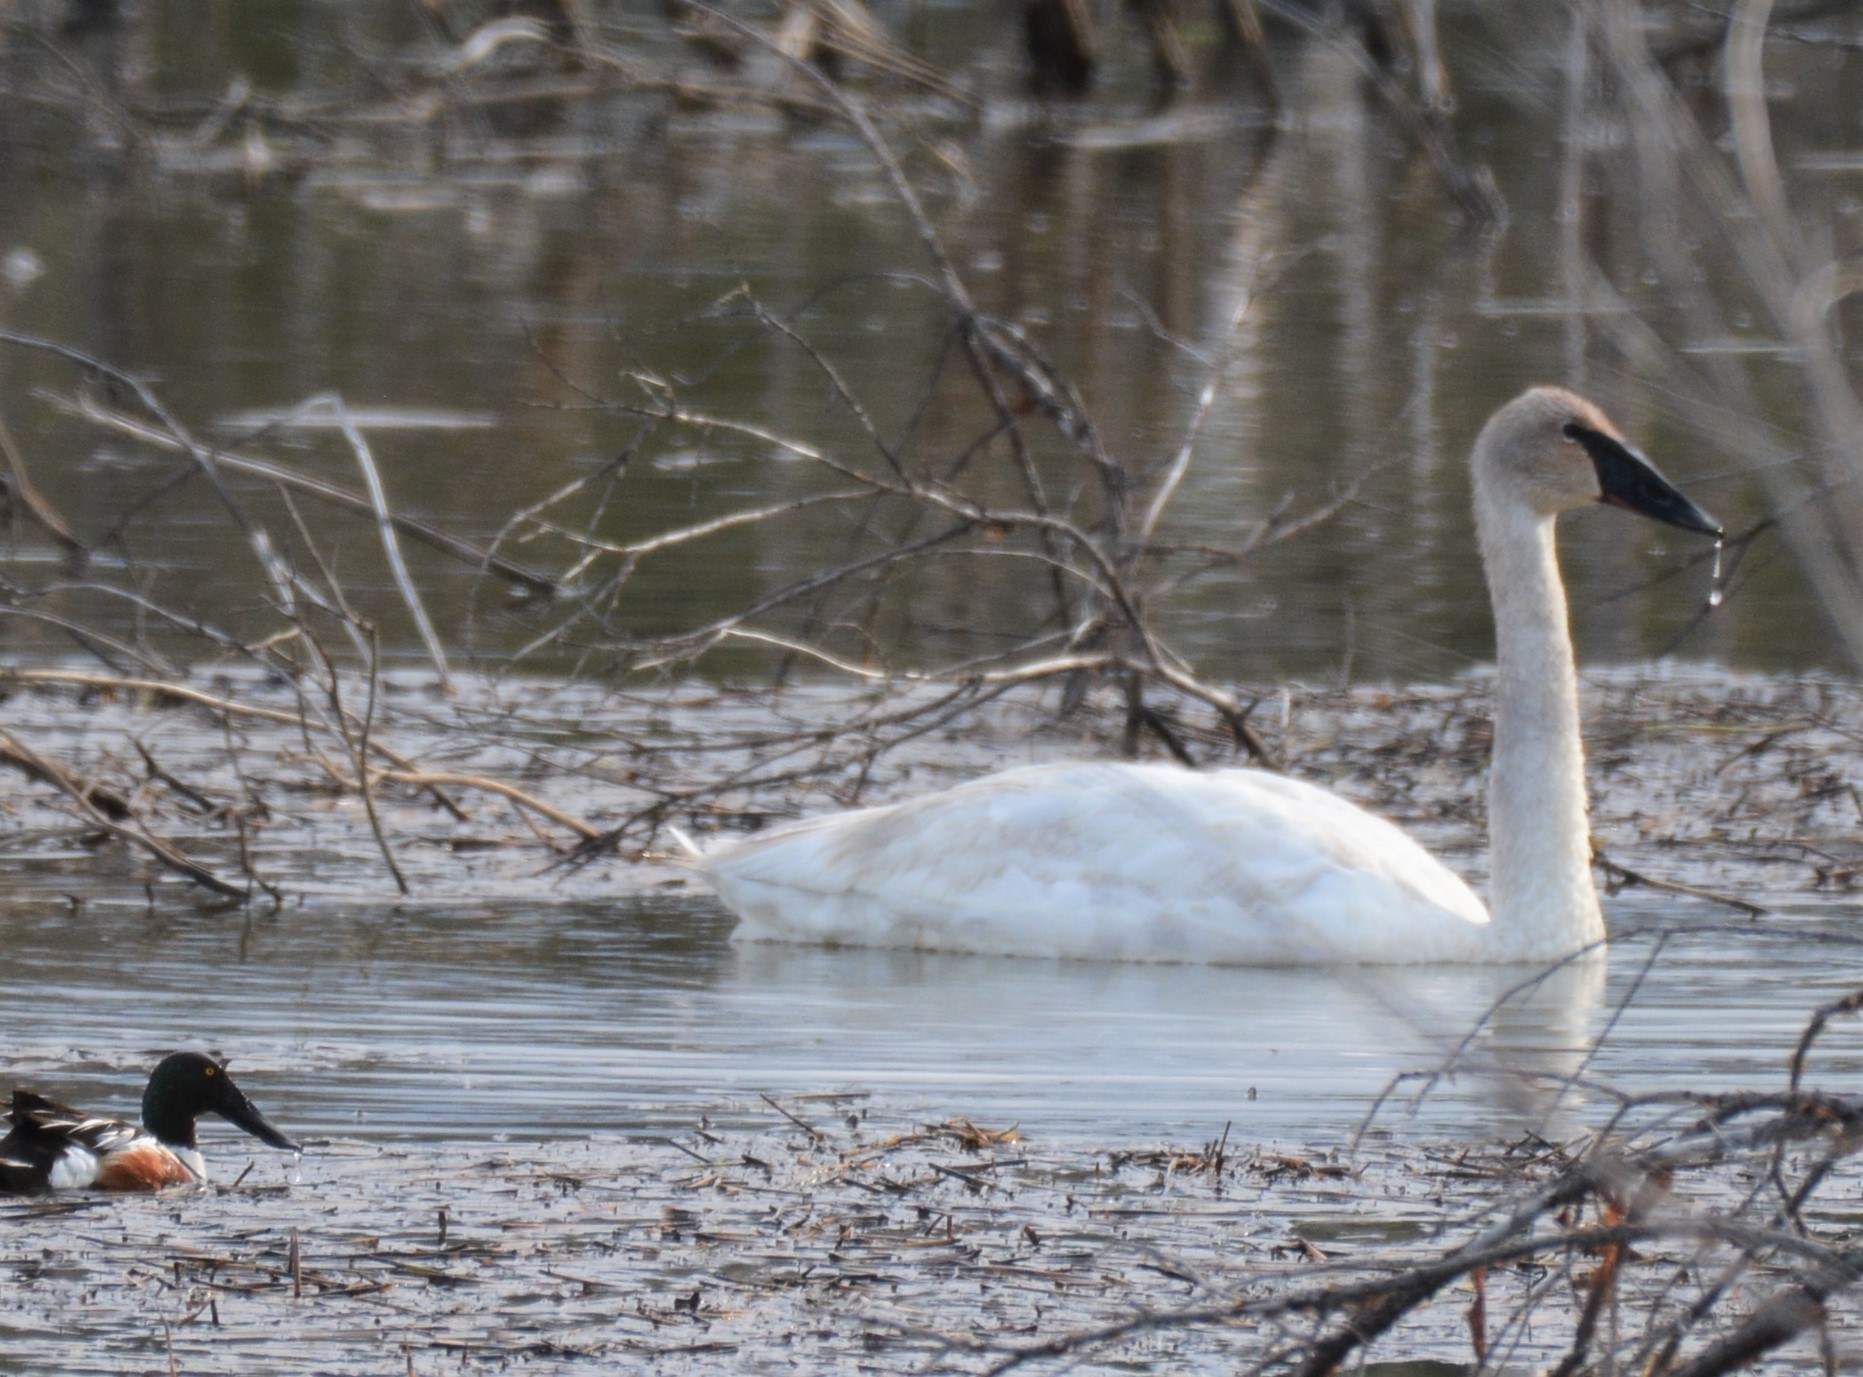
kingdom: Animalia
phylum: Chordata
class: Aves
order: Anseriformes
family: Anatidae
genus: Cygnus
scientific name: Cygnus buccinator
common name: Trumpeter swan
